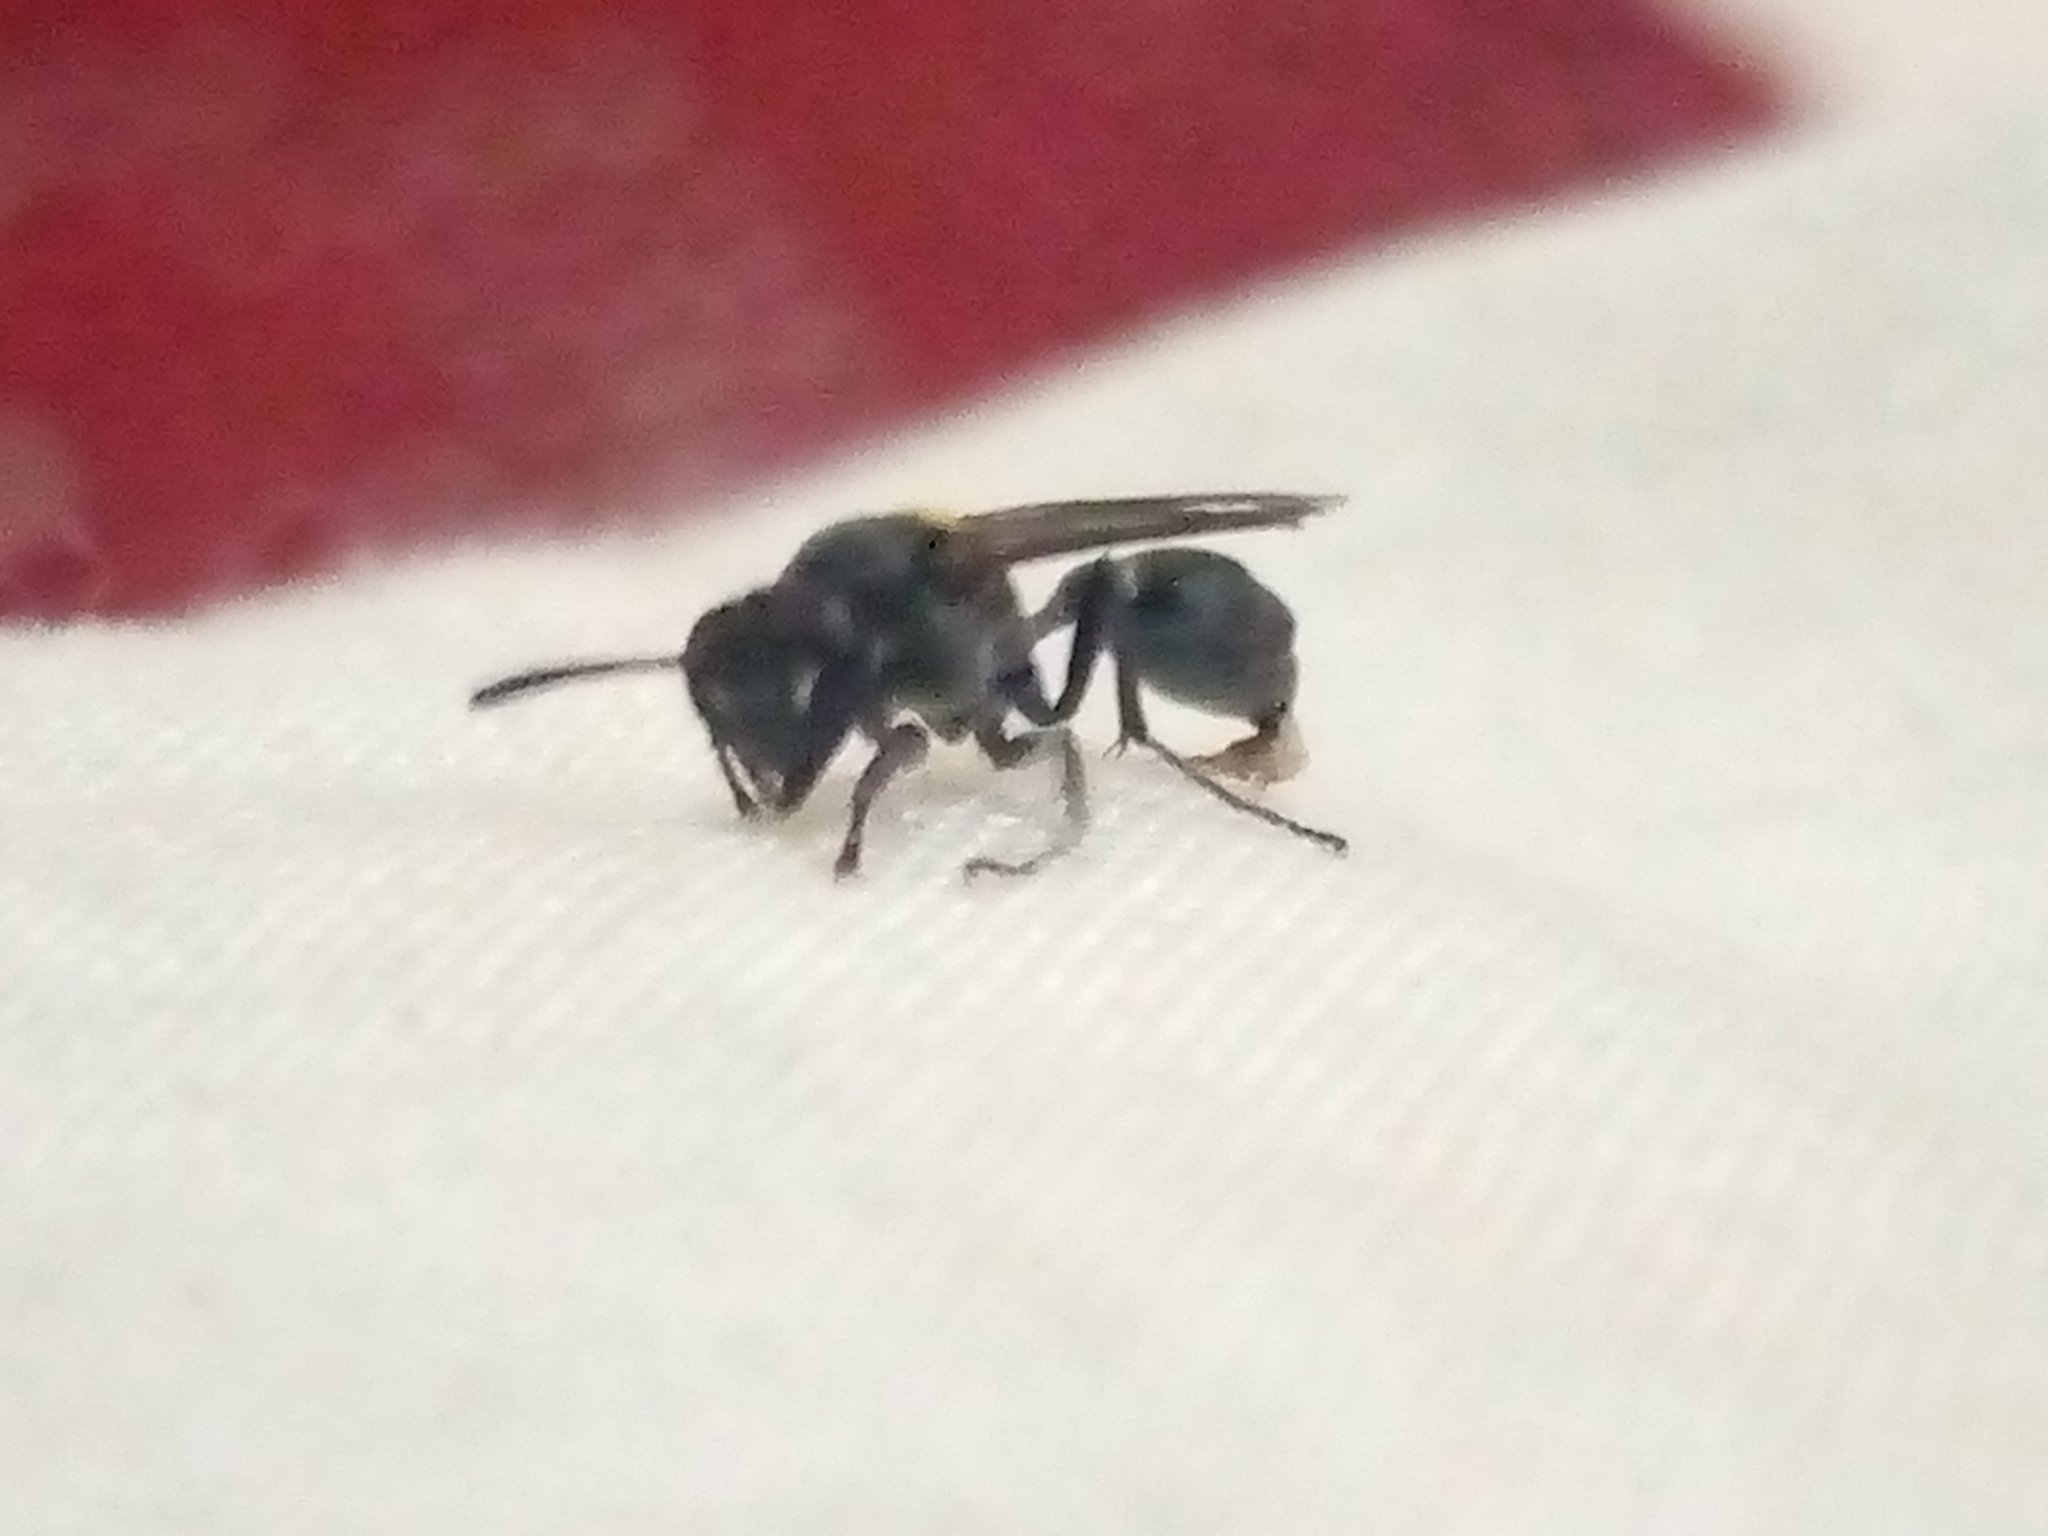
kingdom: Animalia
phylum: Arthropoda
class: Insecta
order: Hymenoptera
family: Eumenidae
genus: Polybia
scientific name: Polybia paulista
